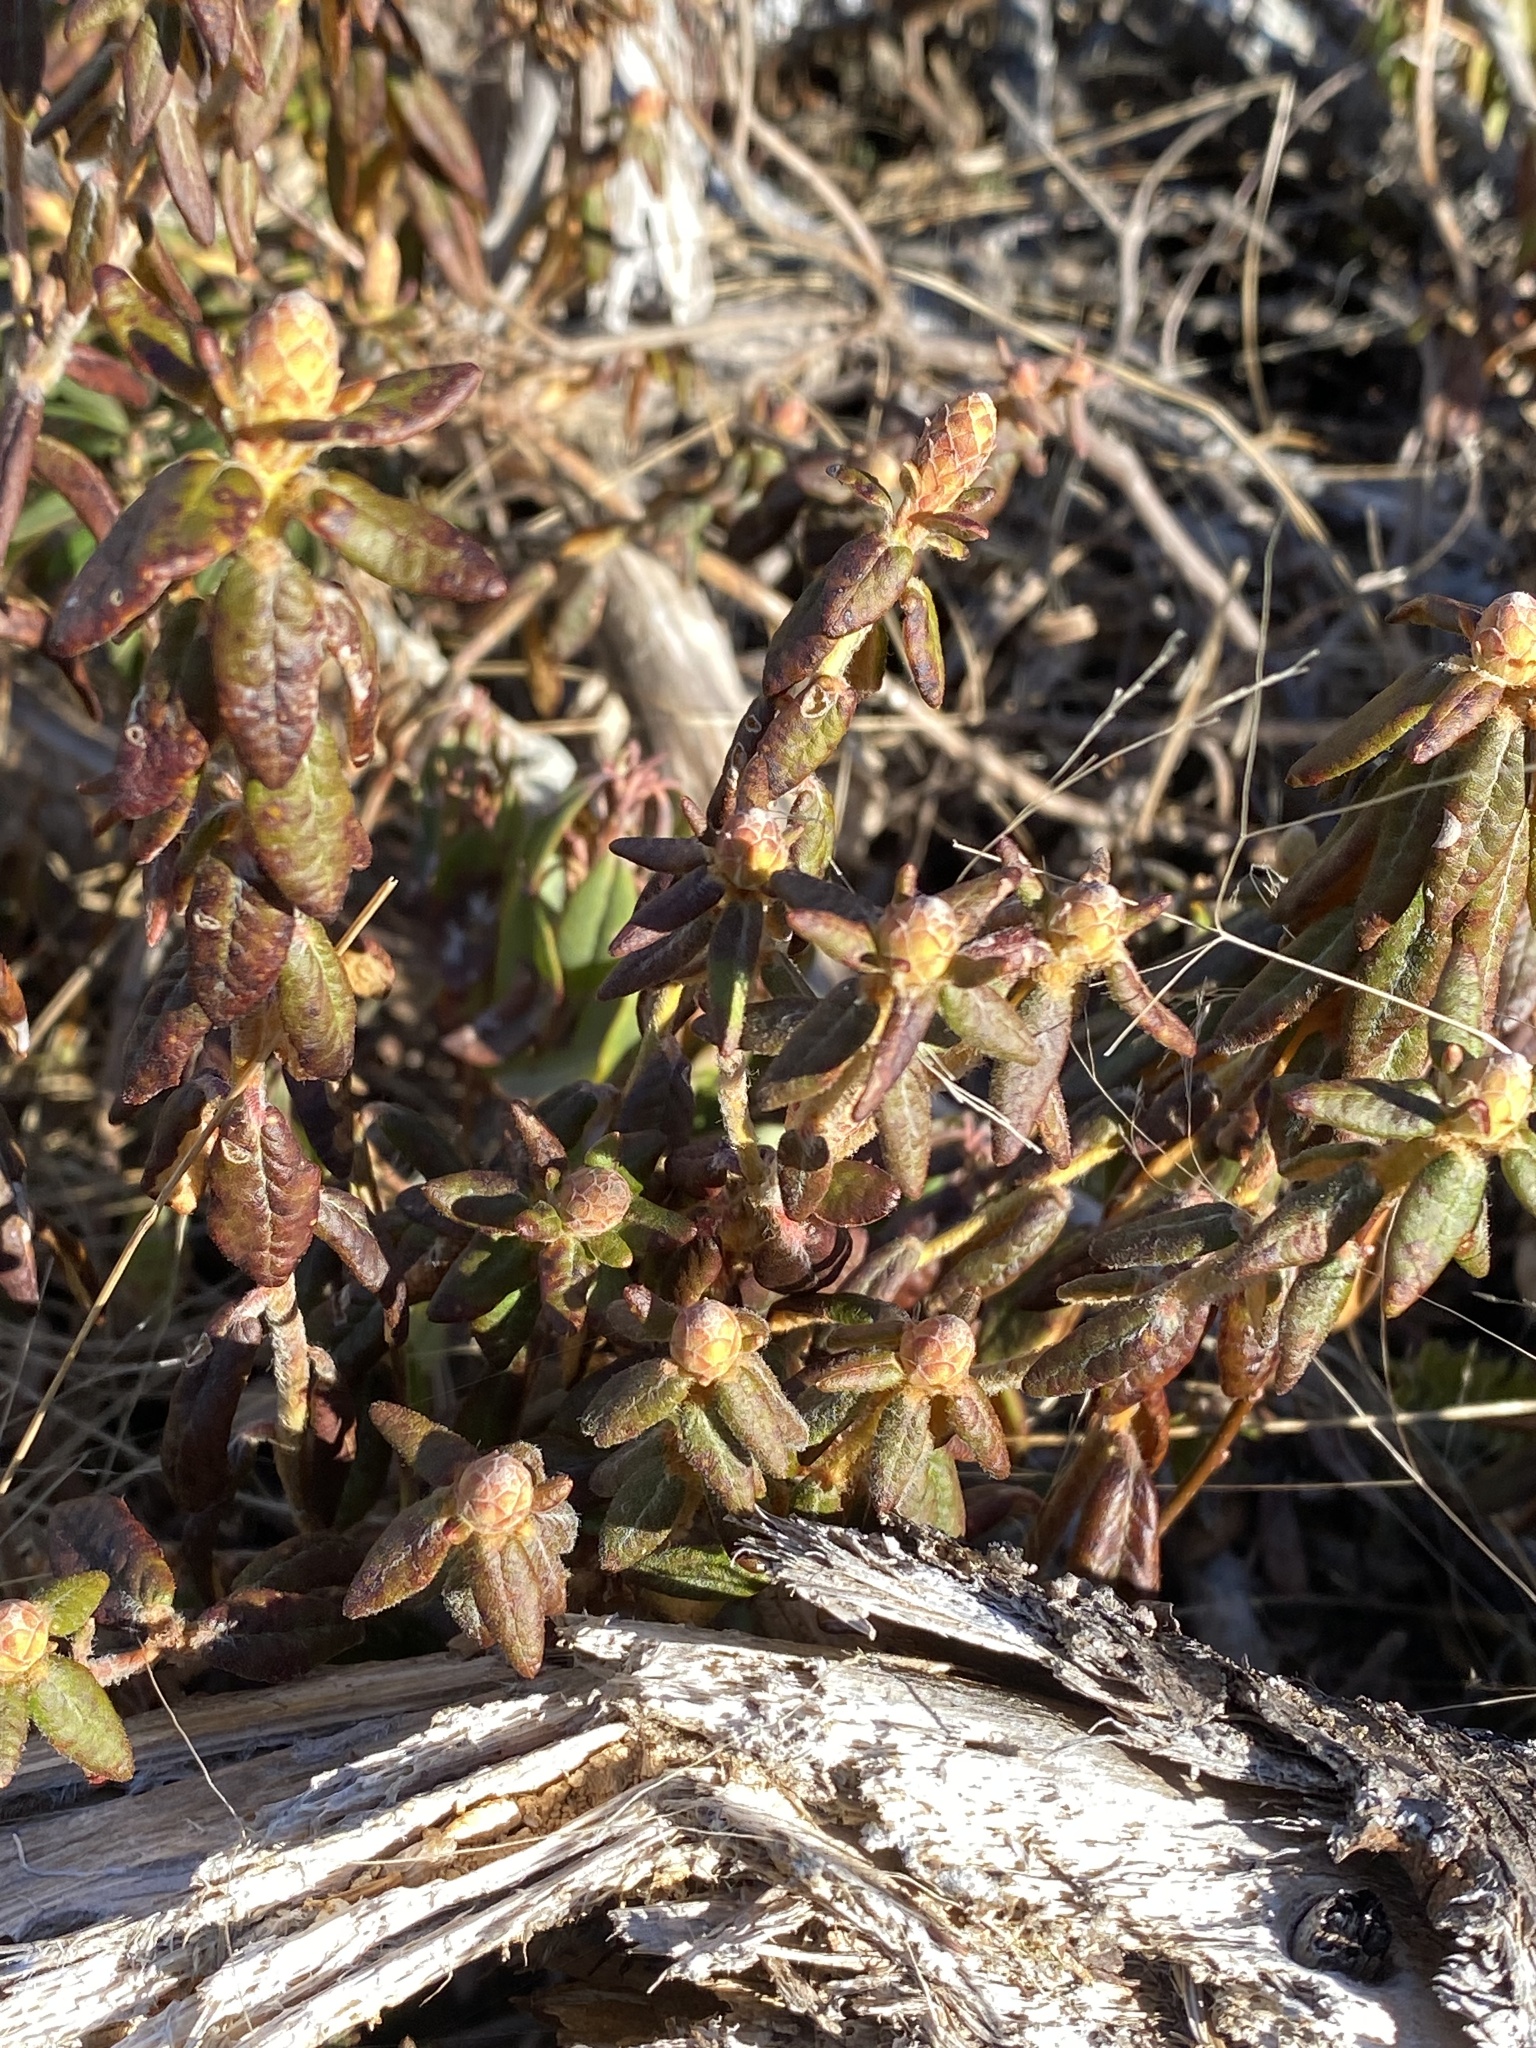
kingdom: Plantae
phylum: Tracheophyta
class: Magnoliopsida
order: Ericales
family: Ericaceae
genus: Rhododendron
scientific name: Rhododendron groenlandicum
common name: Bog labrador tea
